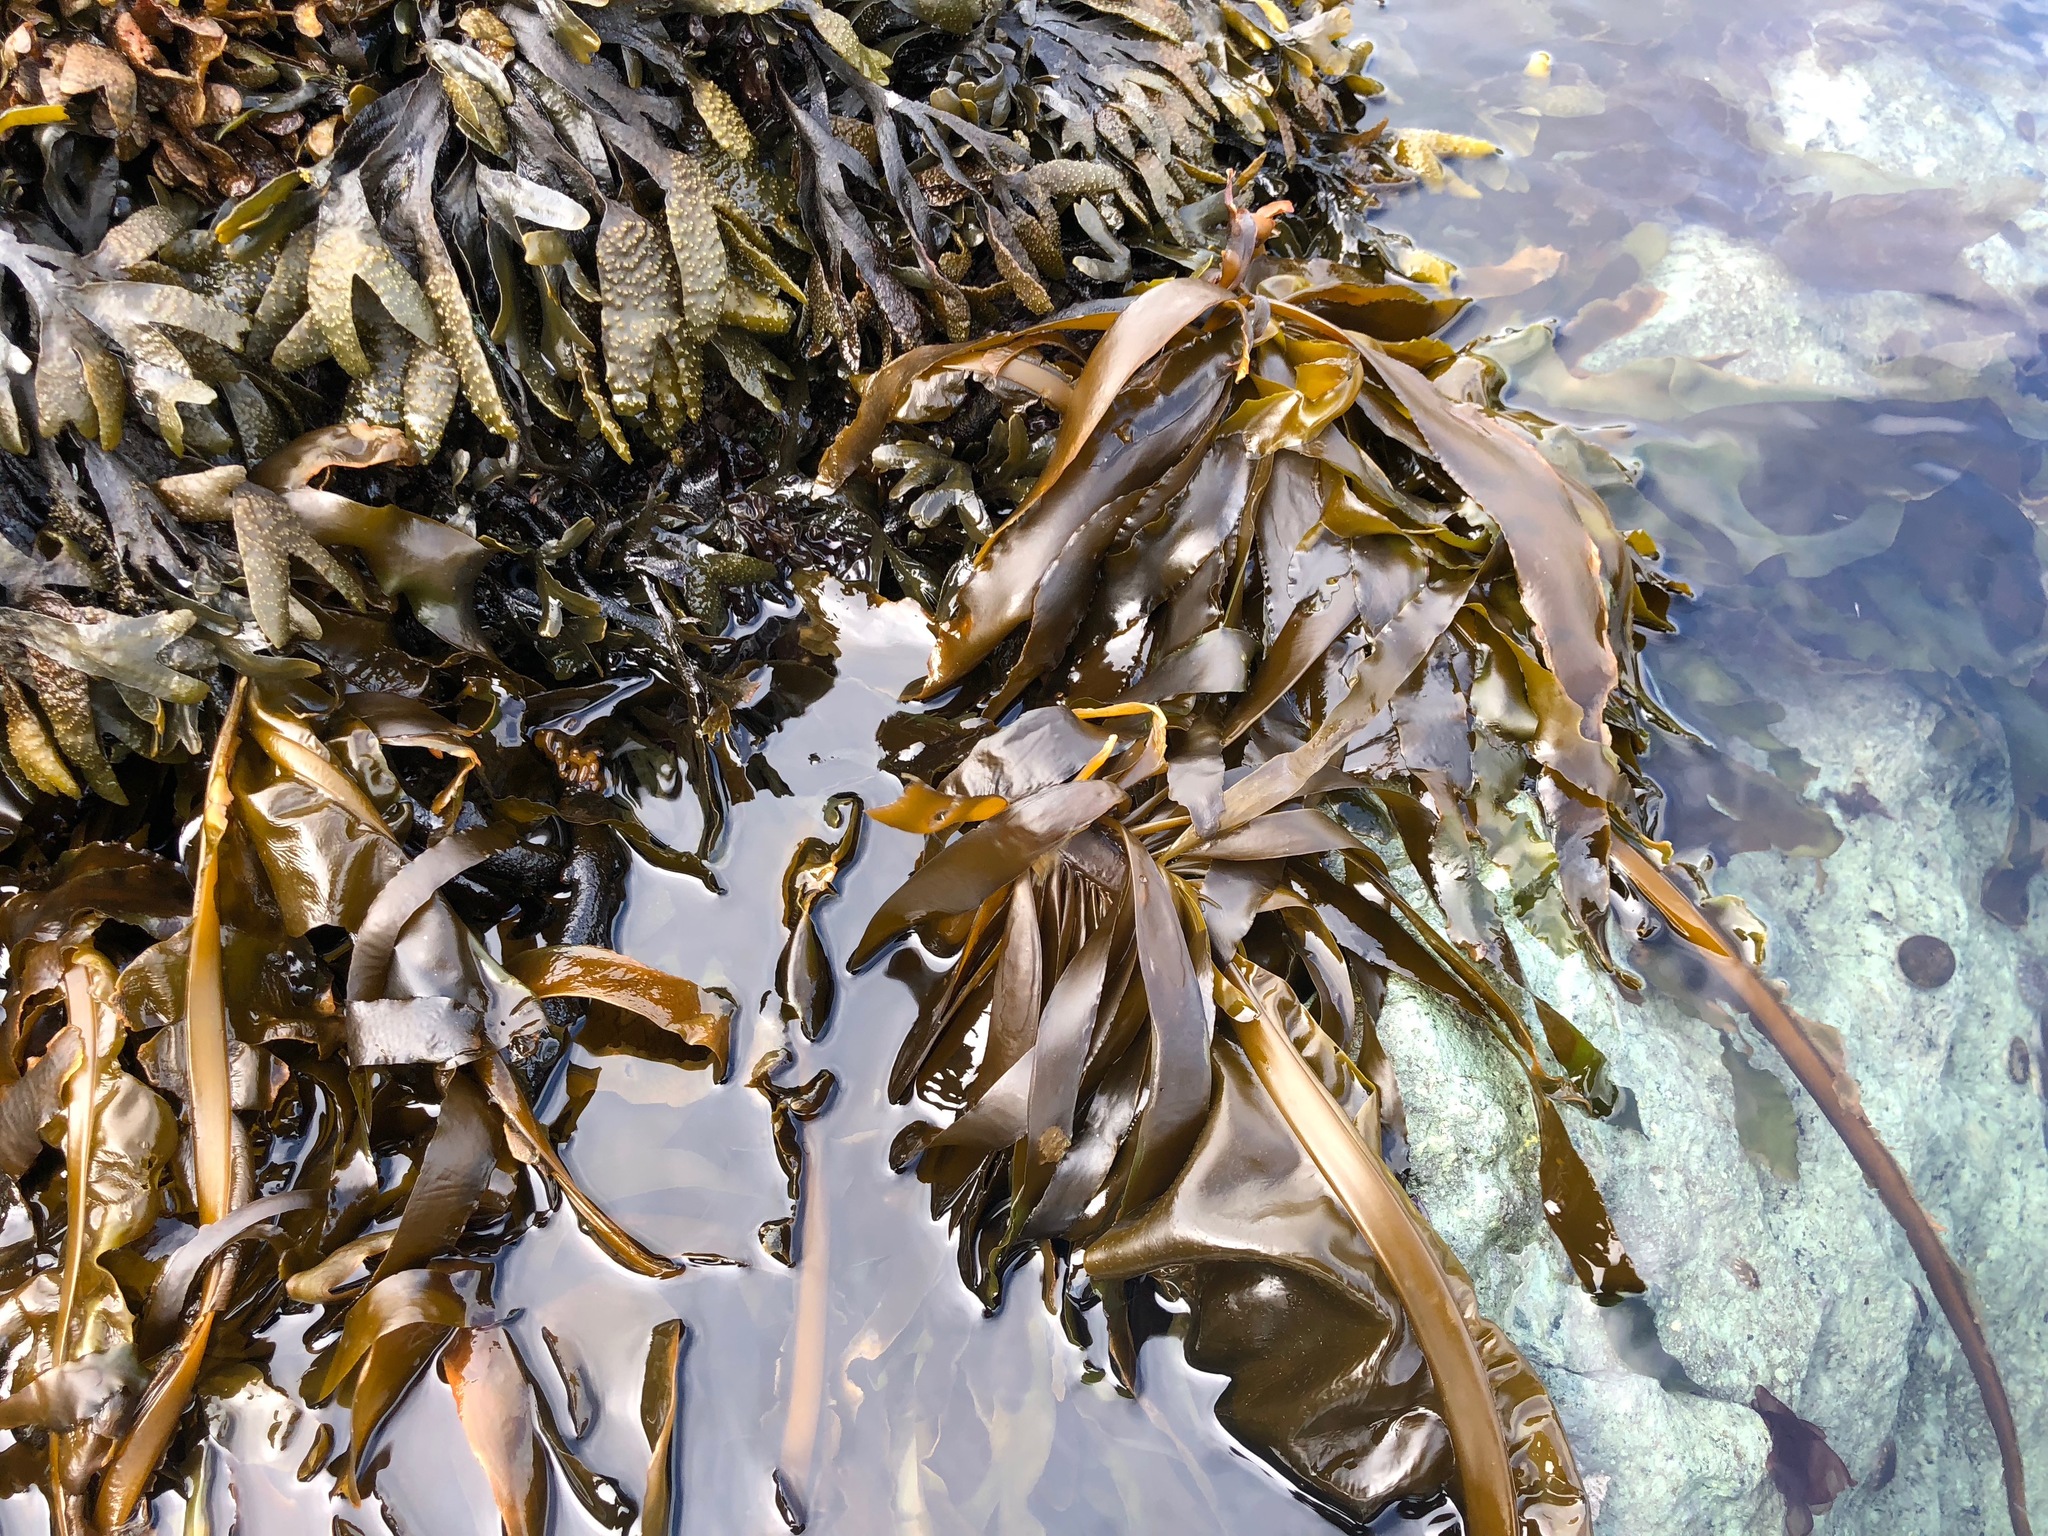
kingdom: Chromista
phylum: Ochrophyta
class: Phaeophyceae
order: Laminariales
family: Alariaceae
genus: Alaria
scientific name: Alaria marginata
